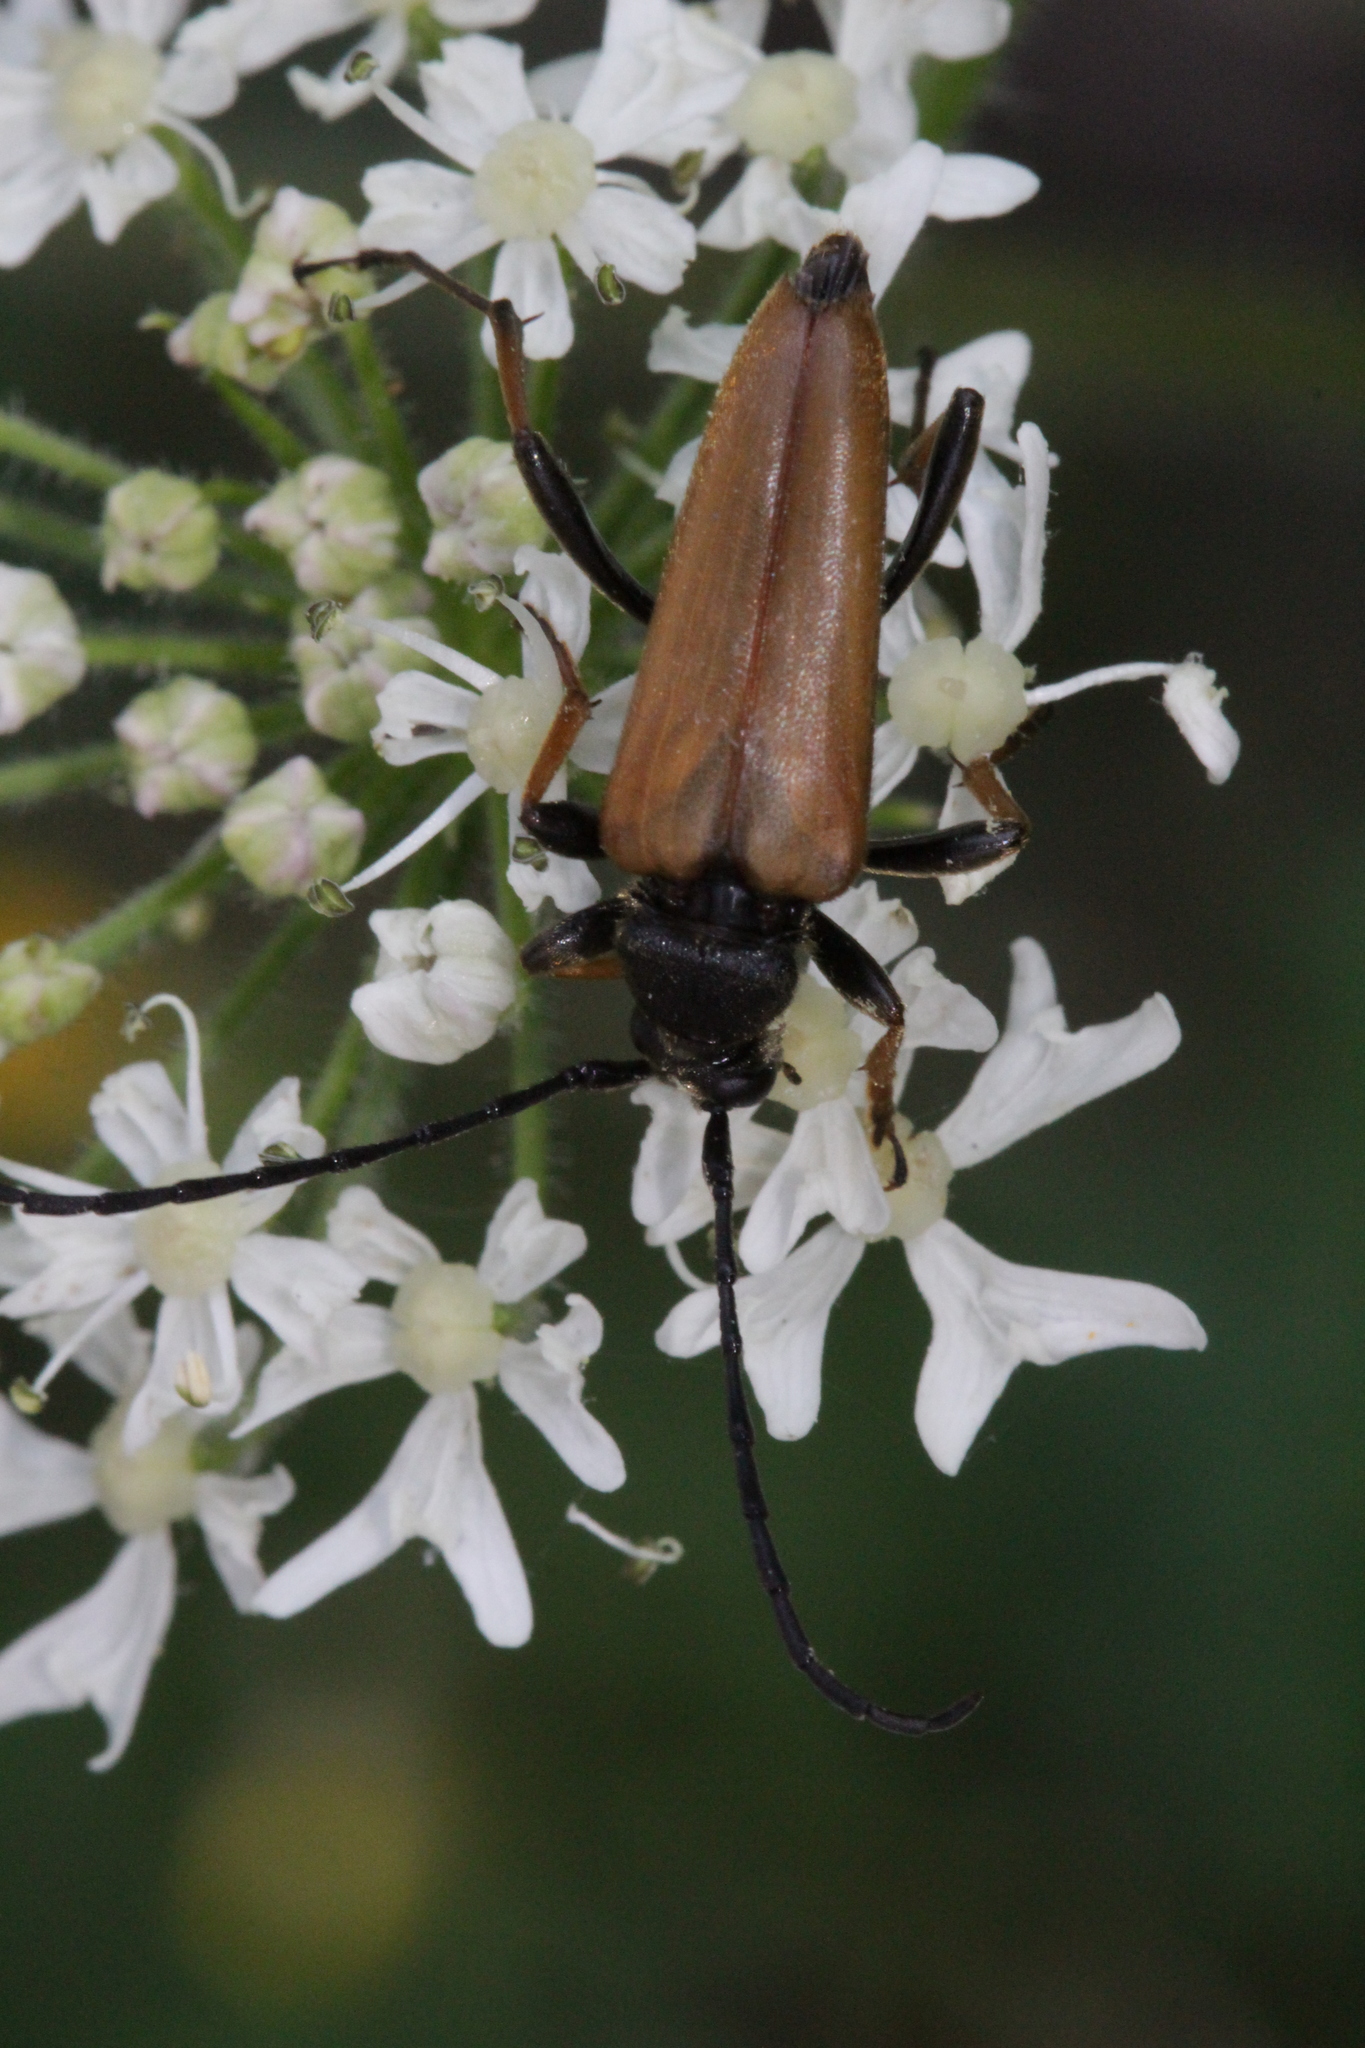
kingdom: Animalia
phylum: Arthropoda
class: Insecta
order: Coleoptera
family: Cerambycidae
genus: Stictoleptura
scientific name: Stictoleptura rubra
